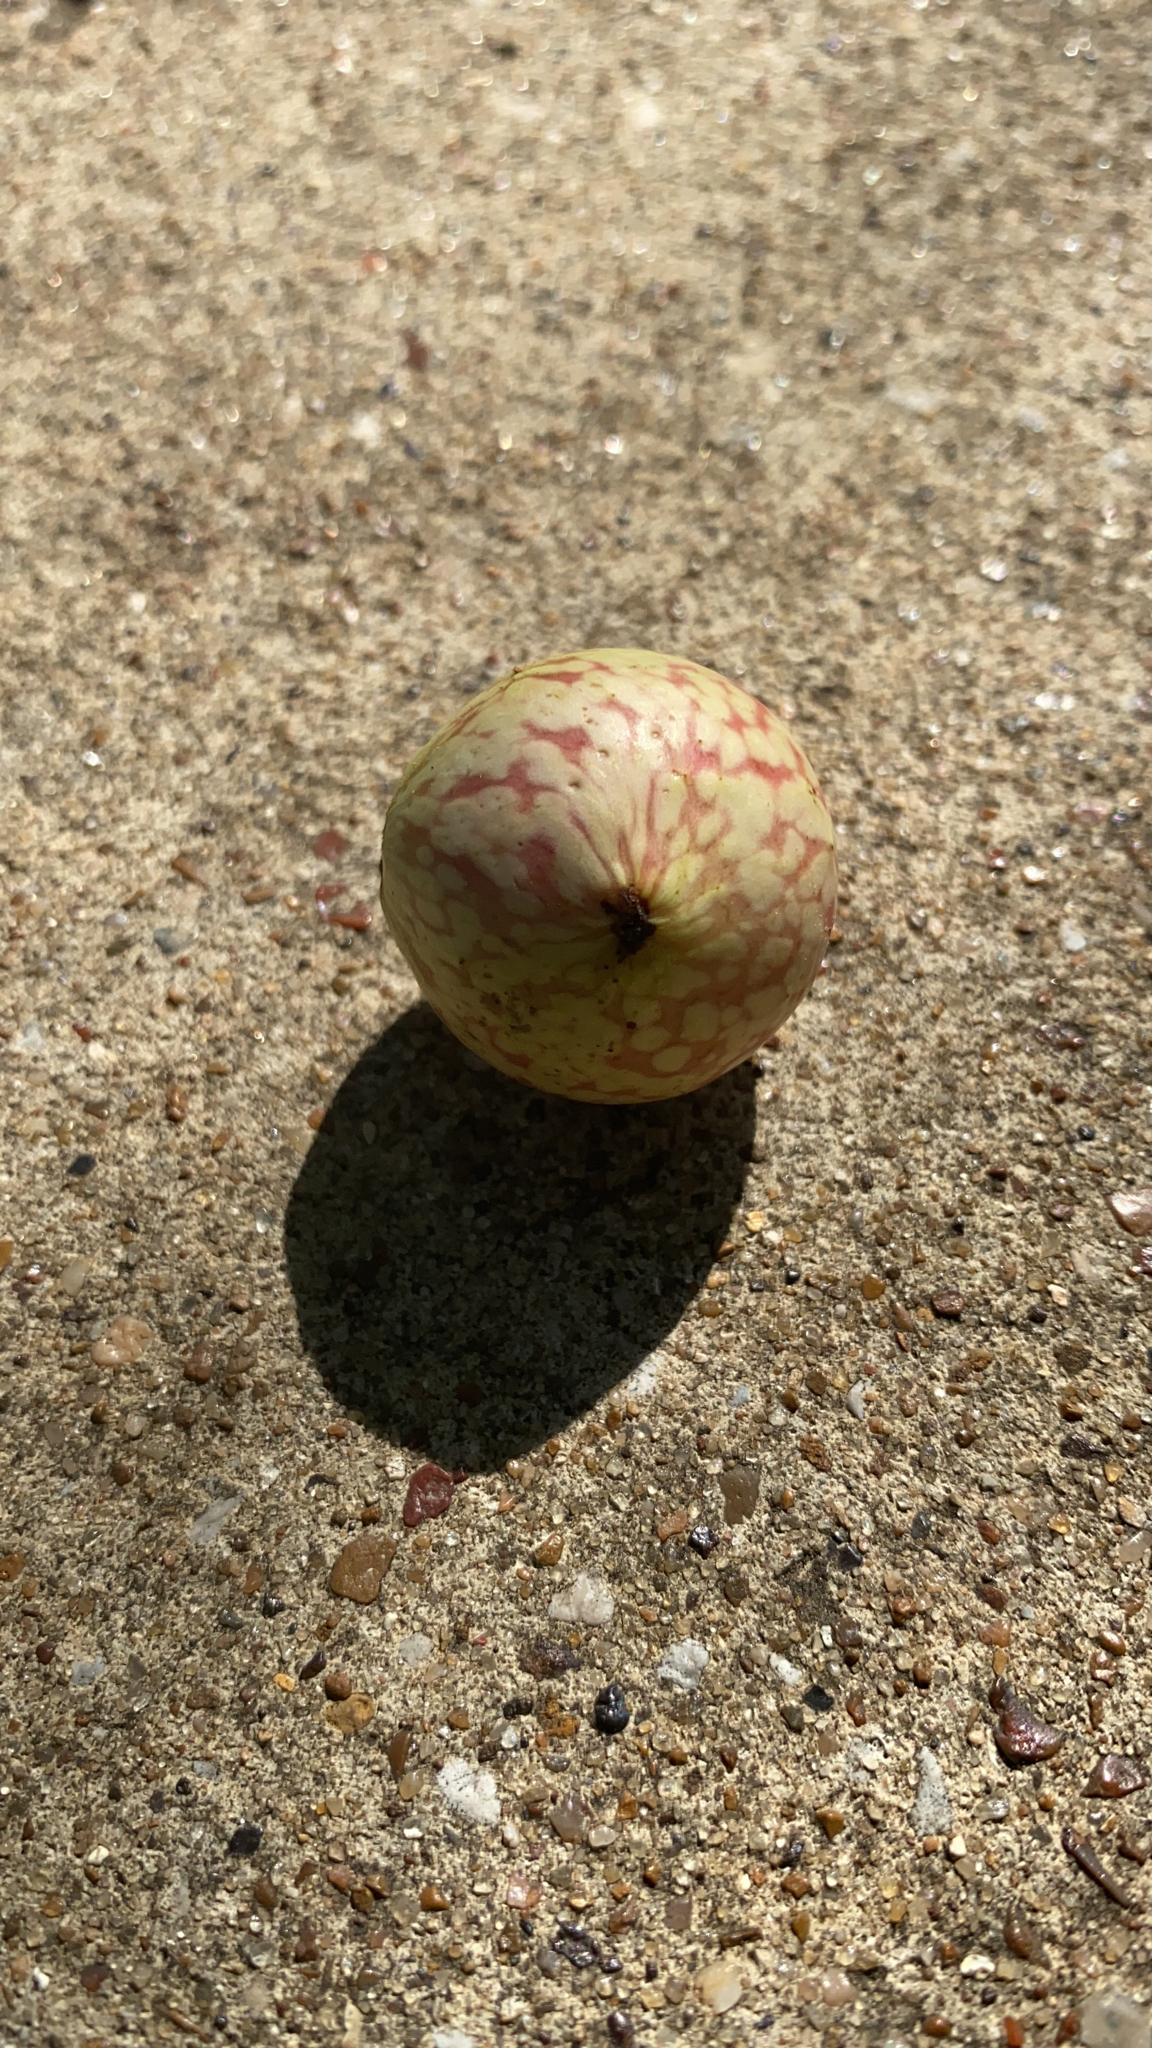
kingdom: Animalia
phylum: Arthropoda
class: Insecta
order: Hymenoptera
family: Cynipidae
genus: Amphibolips
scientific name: Amphibolips
